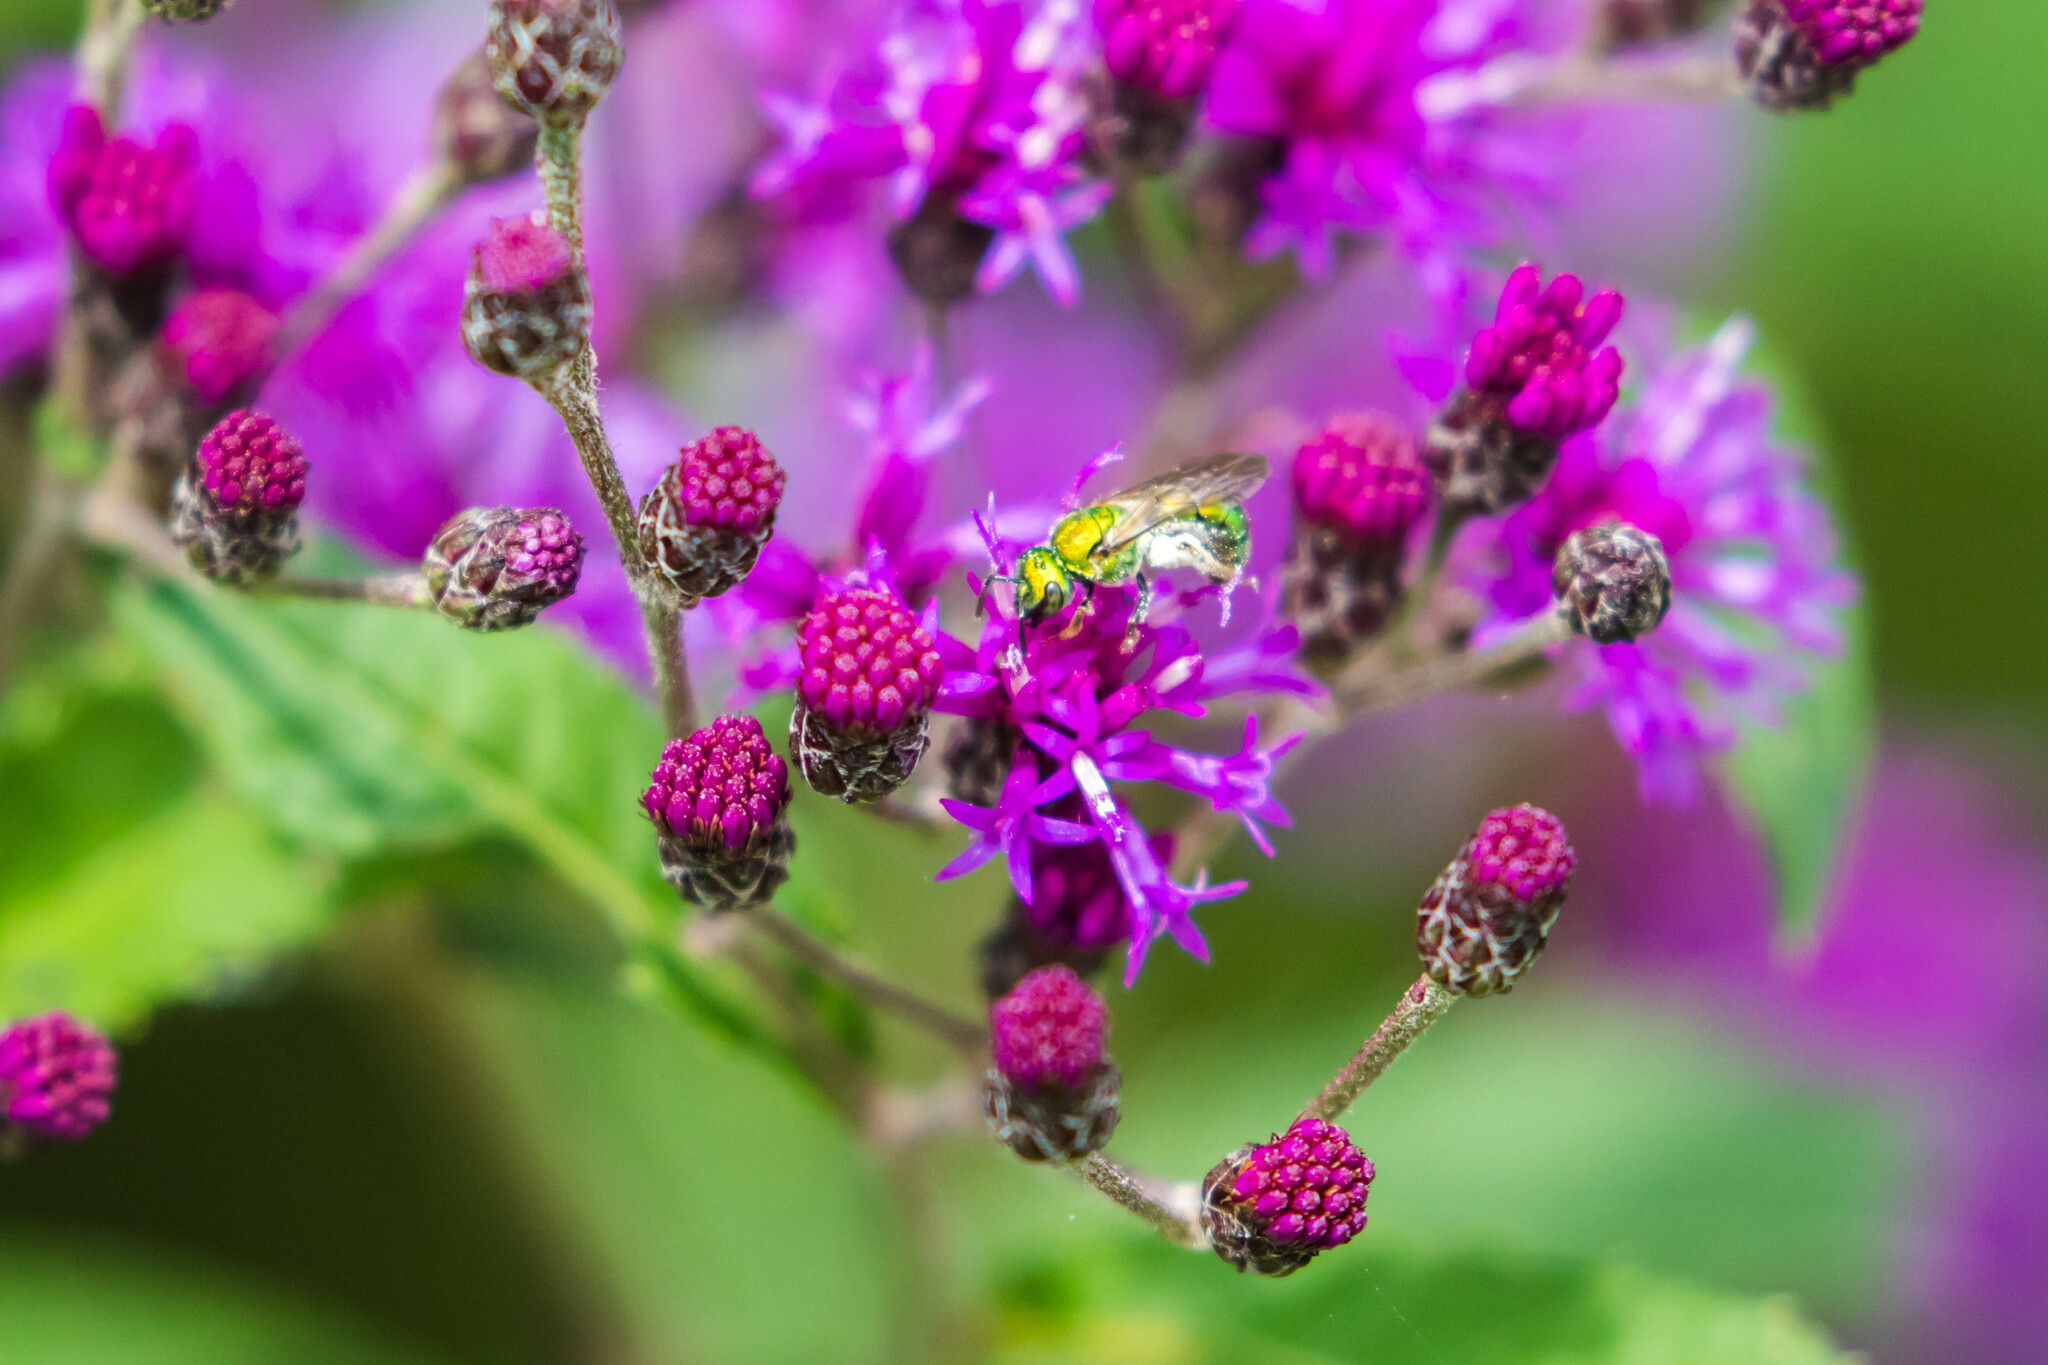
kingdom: Animalia
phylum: Arthropoda
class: Insecta
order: Hymenoptera
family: Halictidae
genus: Augochlora
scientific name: Augochlora pura
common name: Pure green sweat bee
